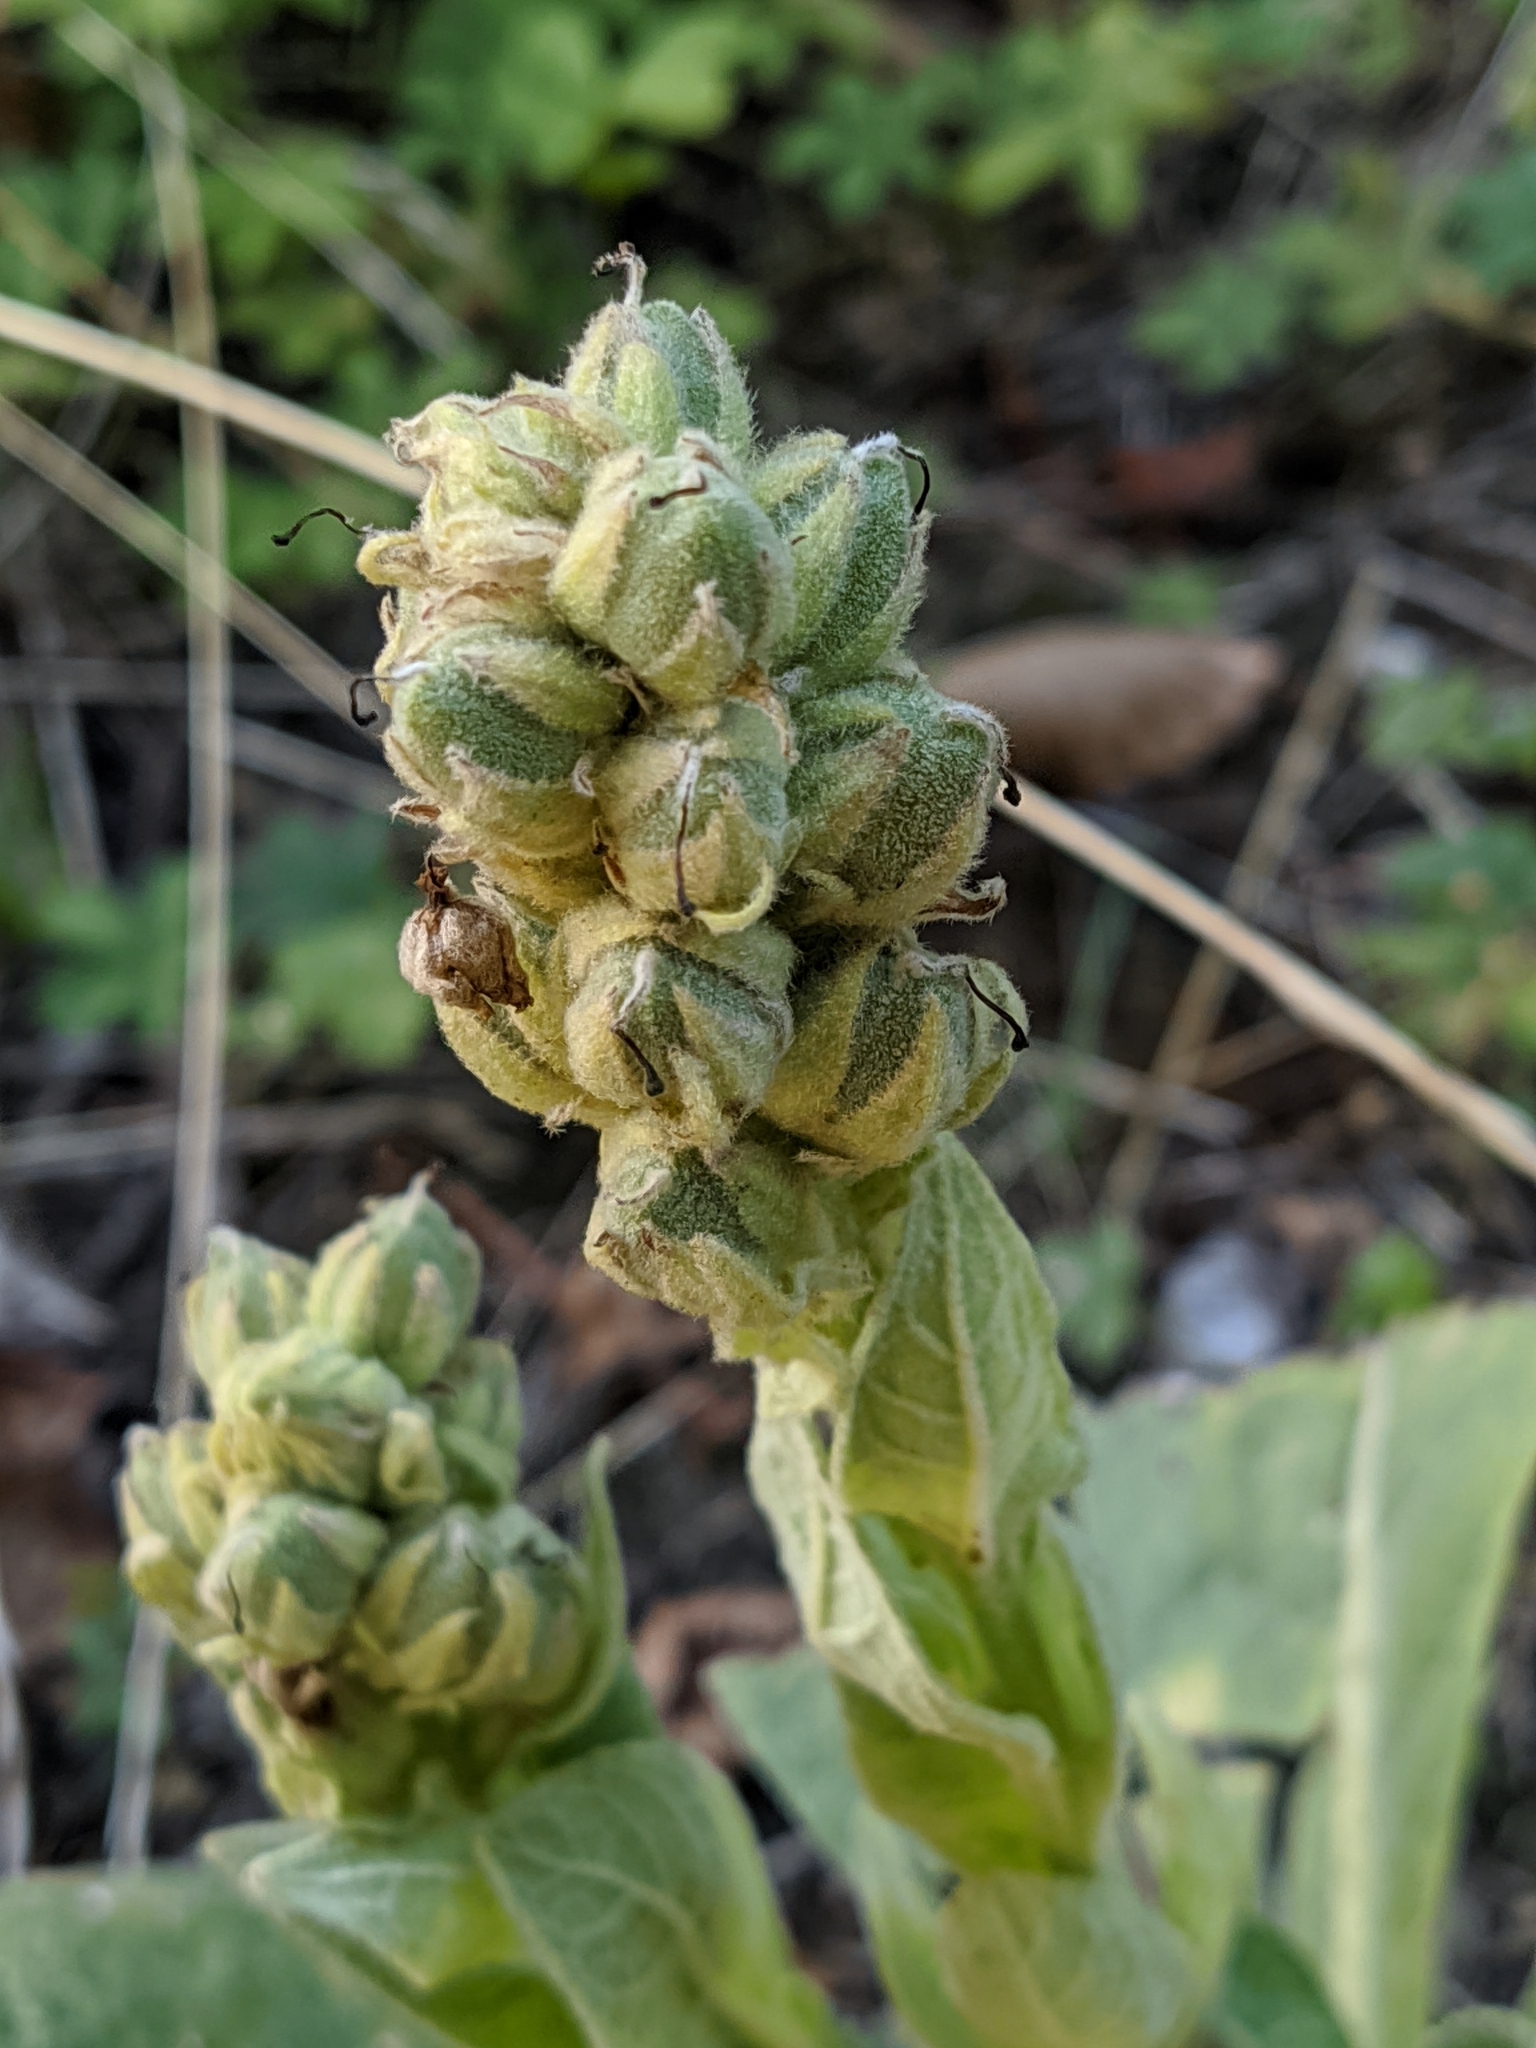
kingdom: Plantae
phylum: Tracheophyta
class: Magnoliopsida
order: Lamiales
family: Scrophulariaceae
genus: Verbascum
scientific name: Verbascum thapsus
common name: Common mullein
